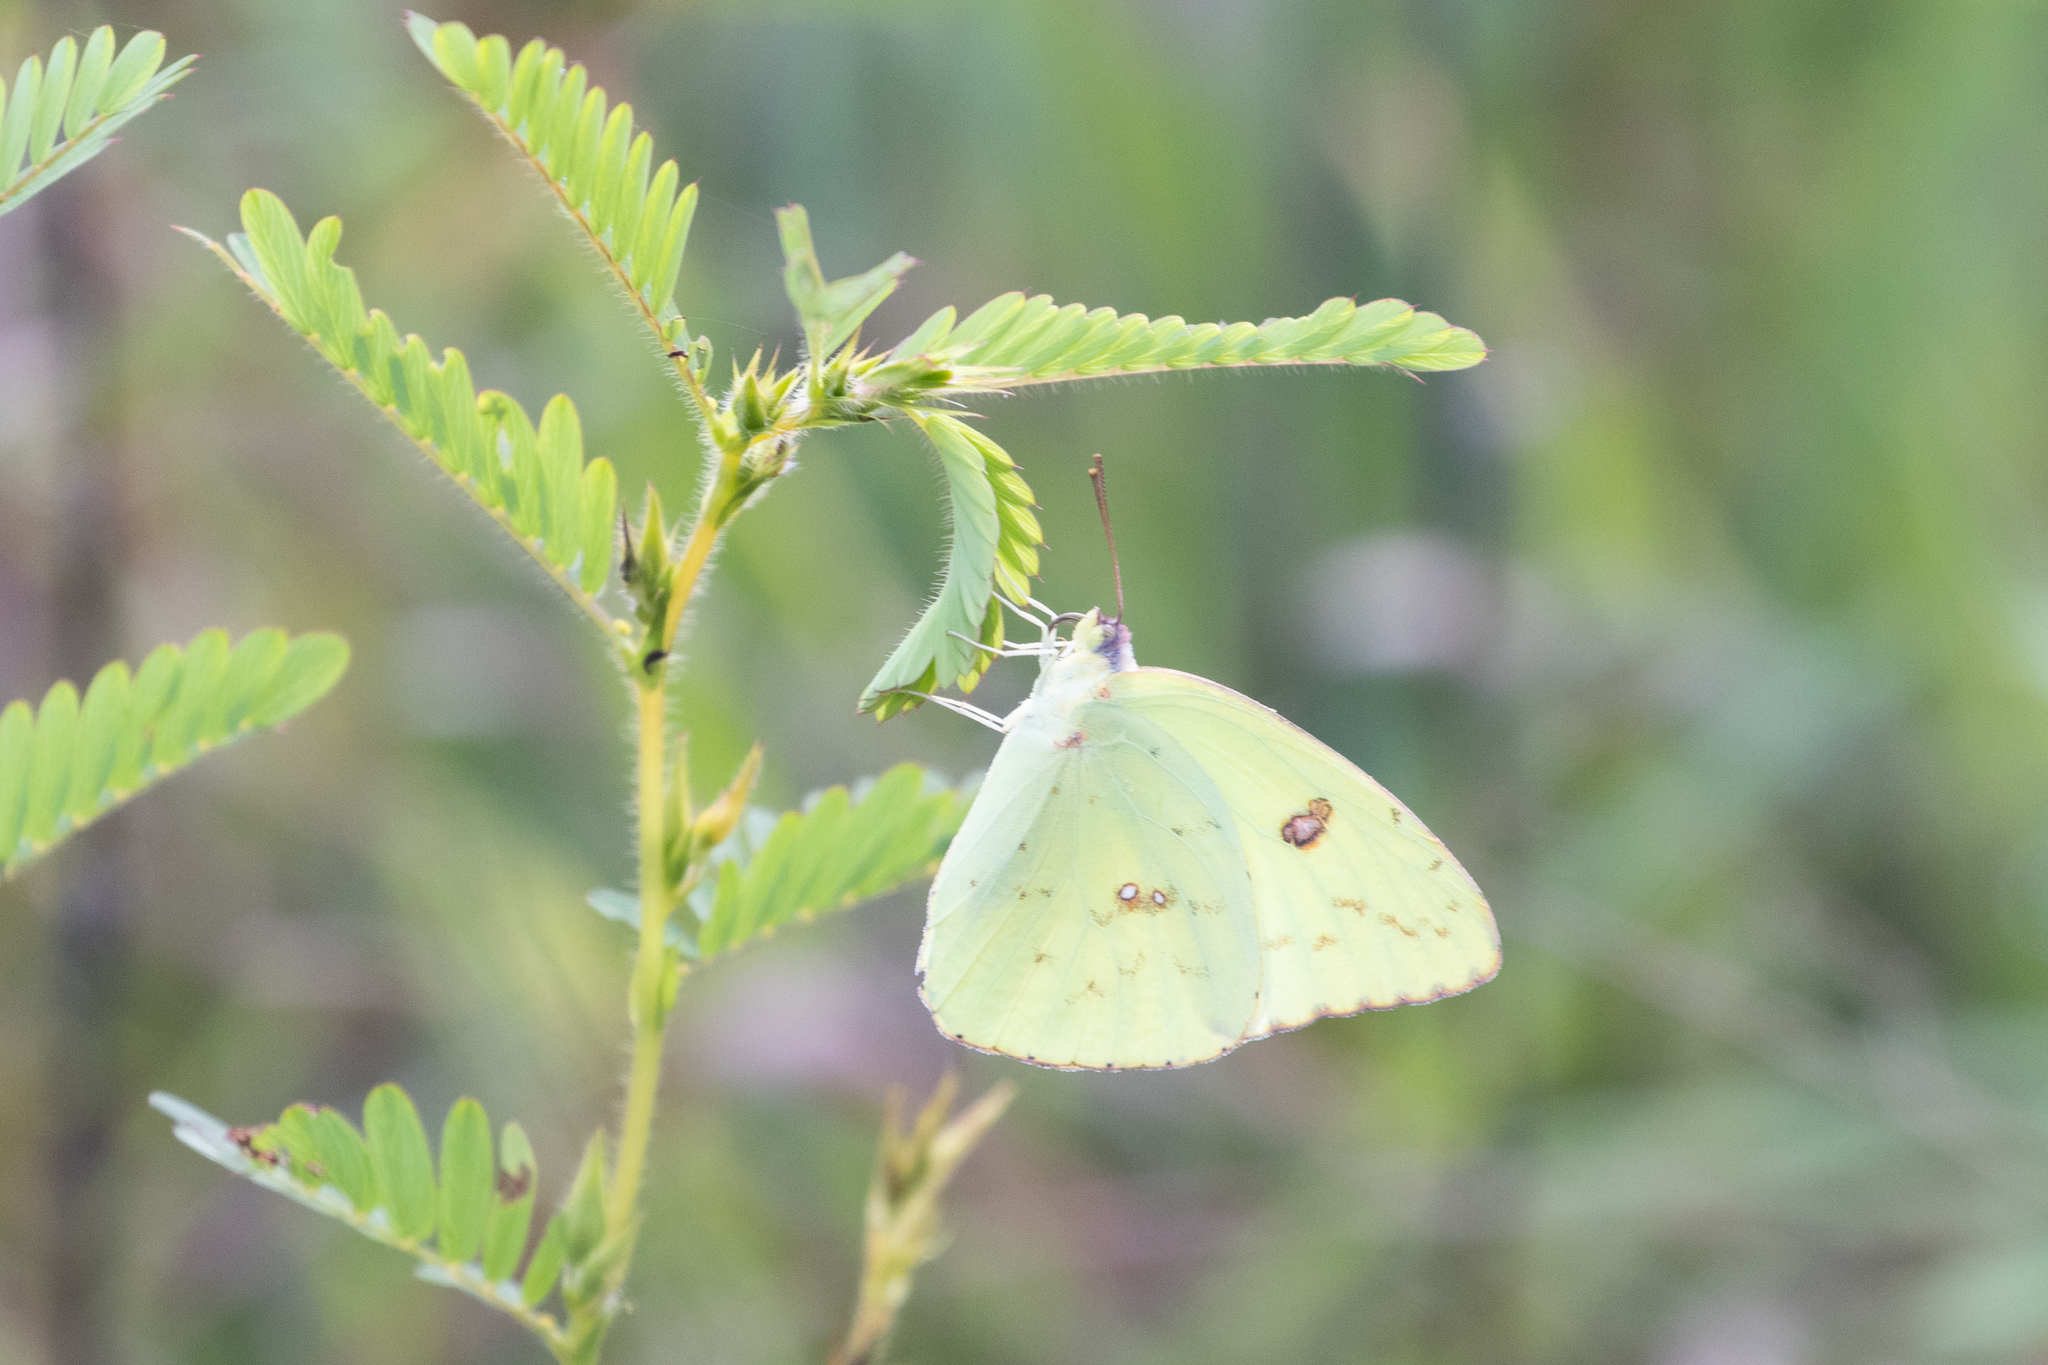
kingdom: Animalia
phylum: Arthropoda
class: Insecta
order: Lepidoptera
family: Pieridae
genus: Phoebis
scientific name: Phoebis sennae
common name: Cloudless sulphur
